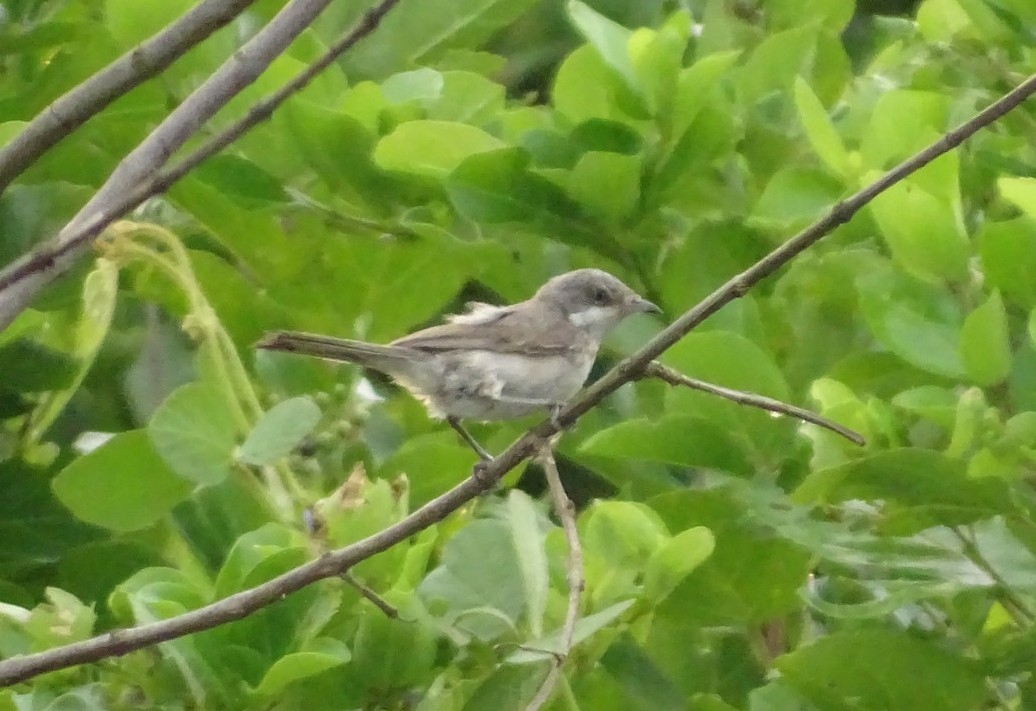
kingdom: Animalia
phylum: Chordata
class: Aves
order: Passeriformes
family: Sylviidae
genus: Sylvia
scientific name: Sylvia curruca
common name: Lesser whitethroat
